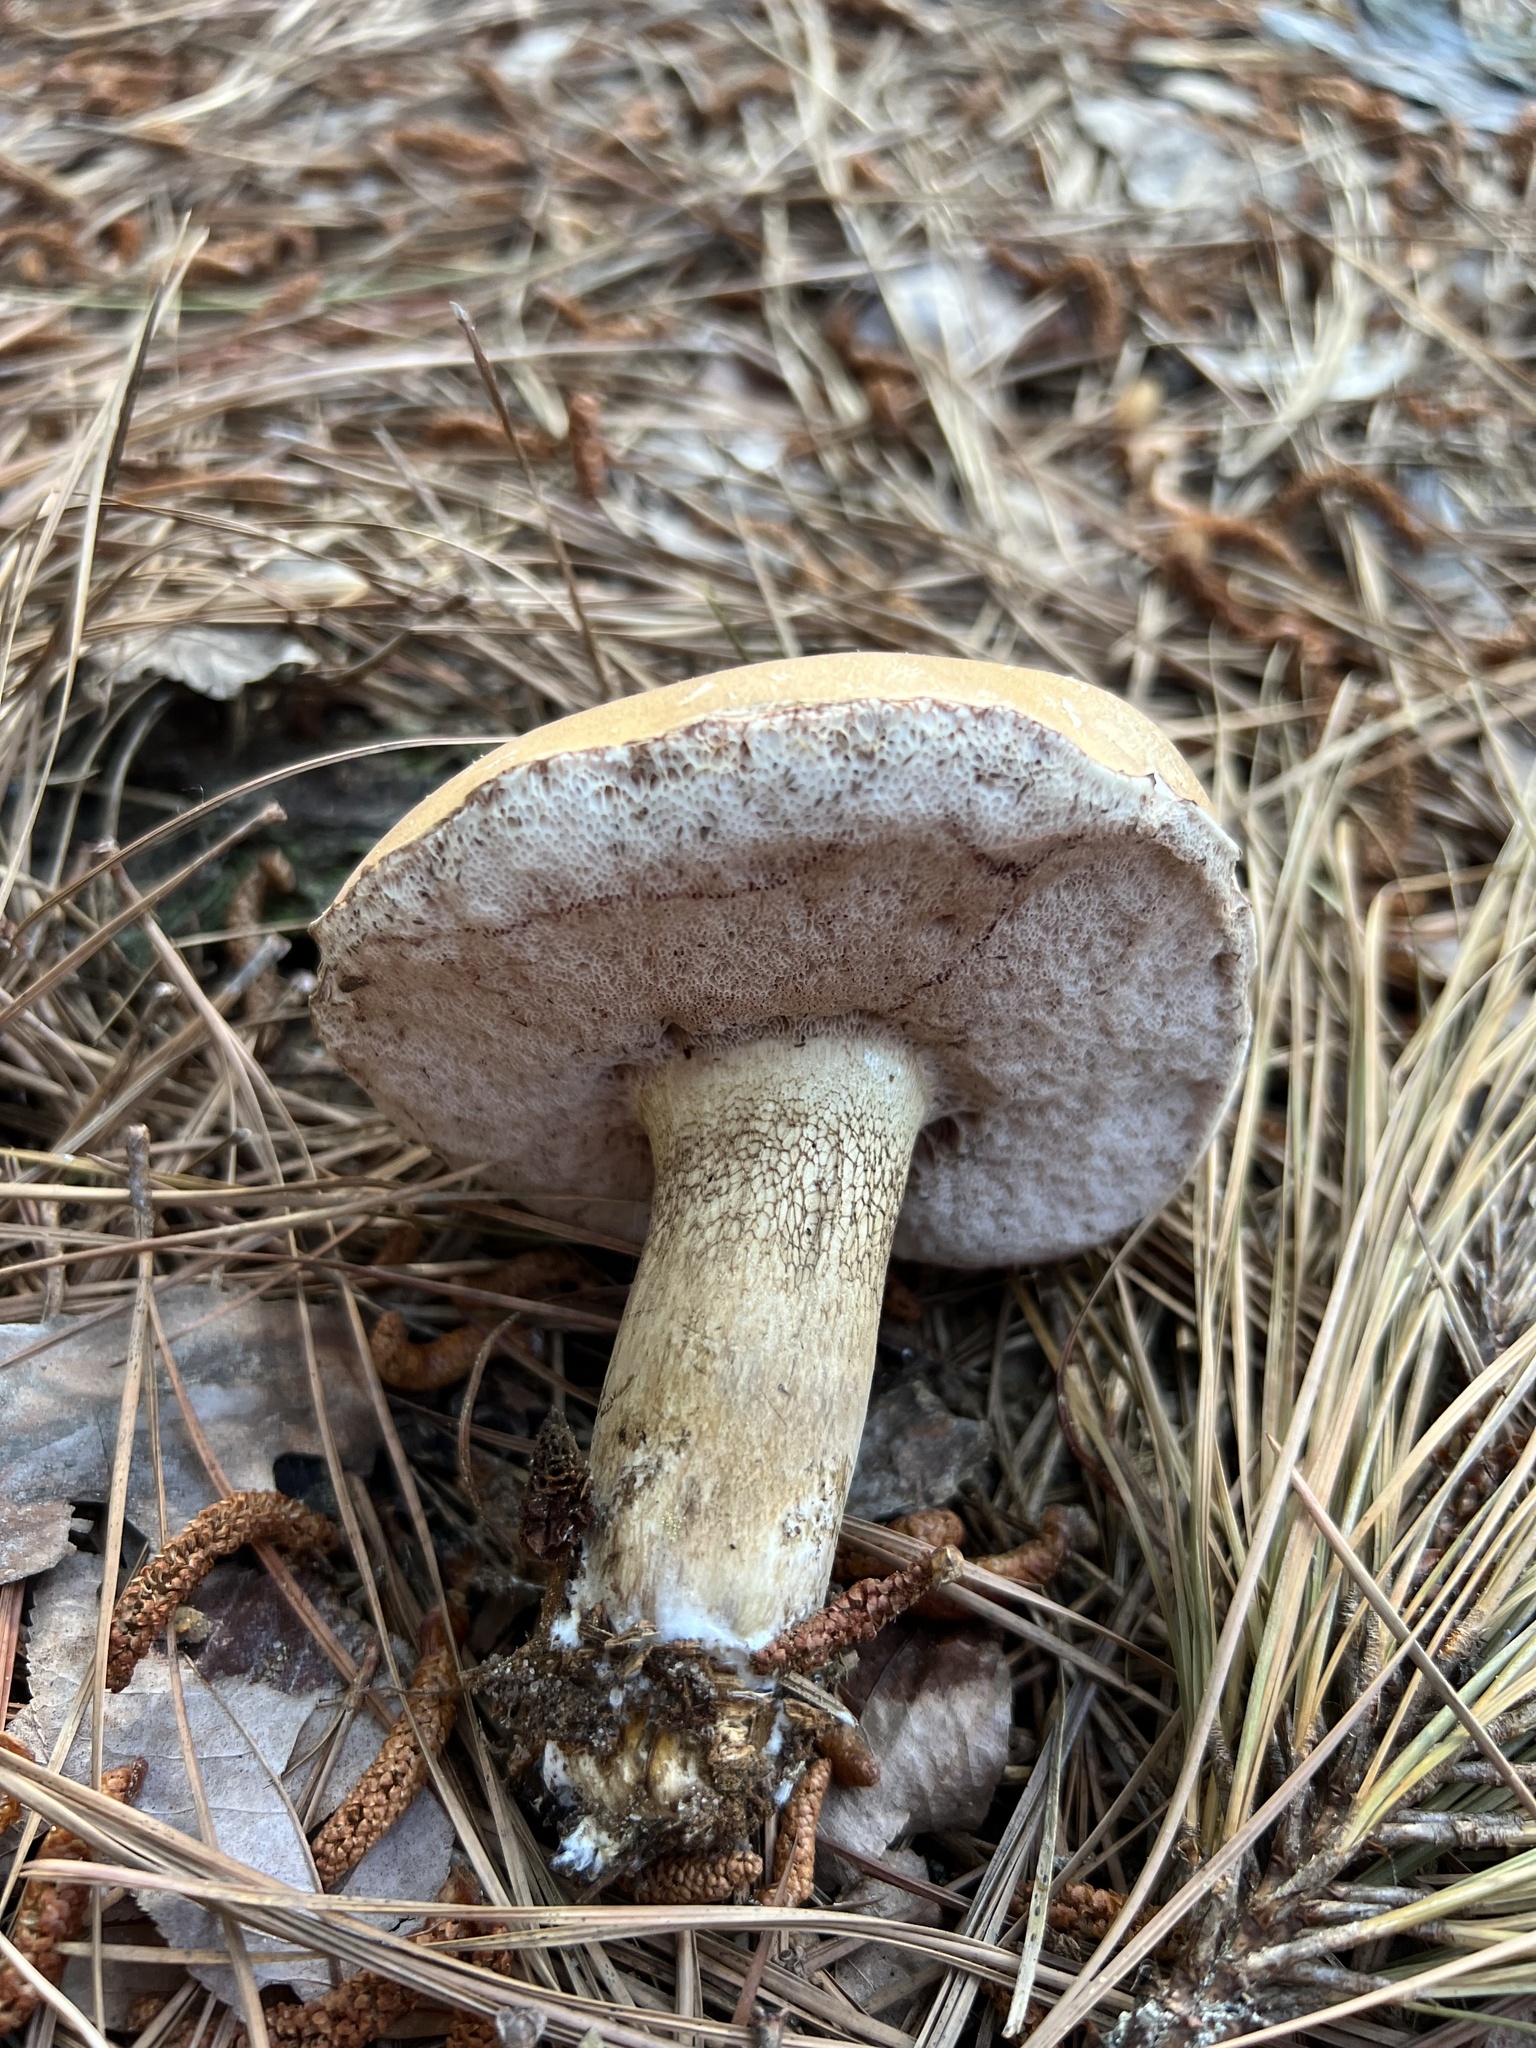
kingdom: Fungi
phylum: Basidiomycota
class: Agaricomycetes
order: Boletales
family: Boletaceae
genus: Tylopilus
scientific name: Tylopilus felleus
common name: Bitter bolete
